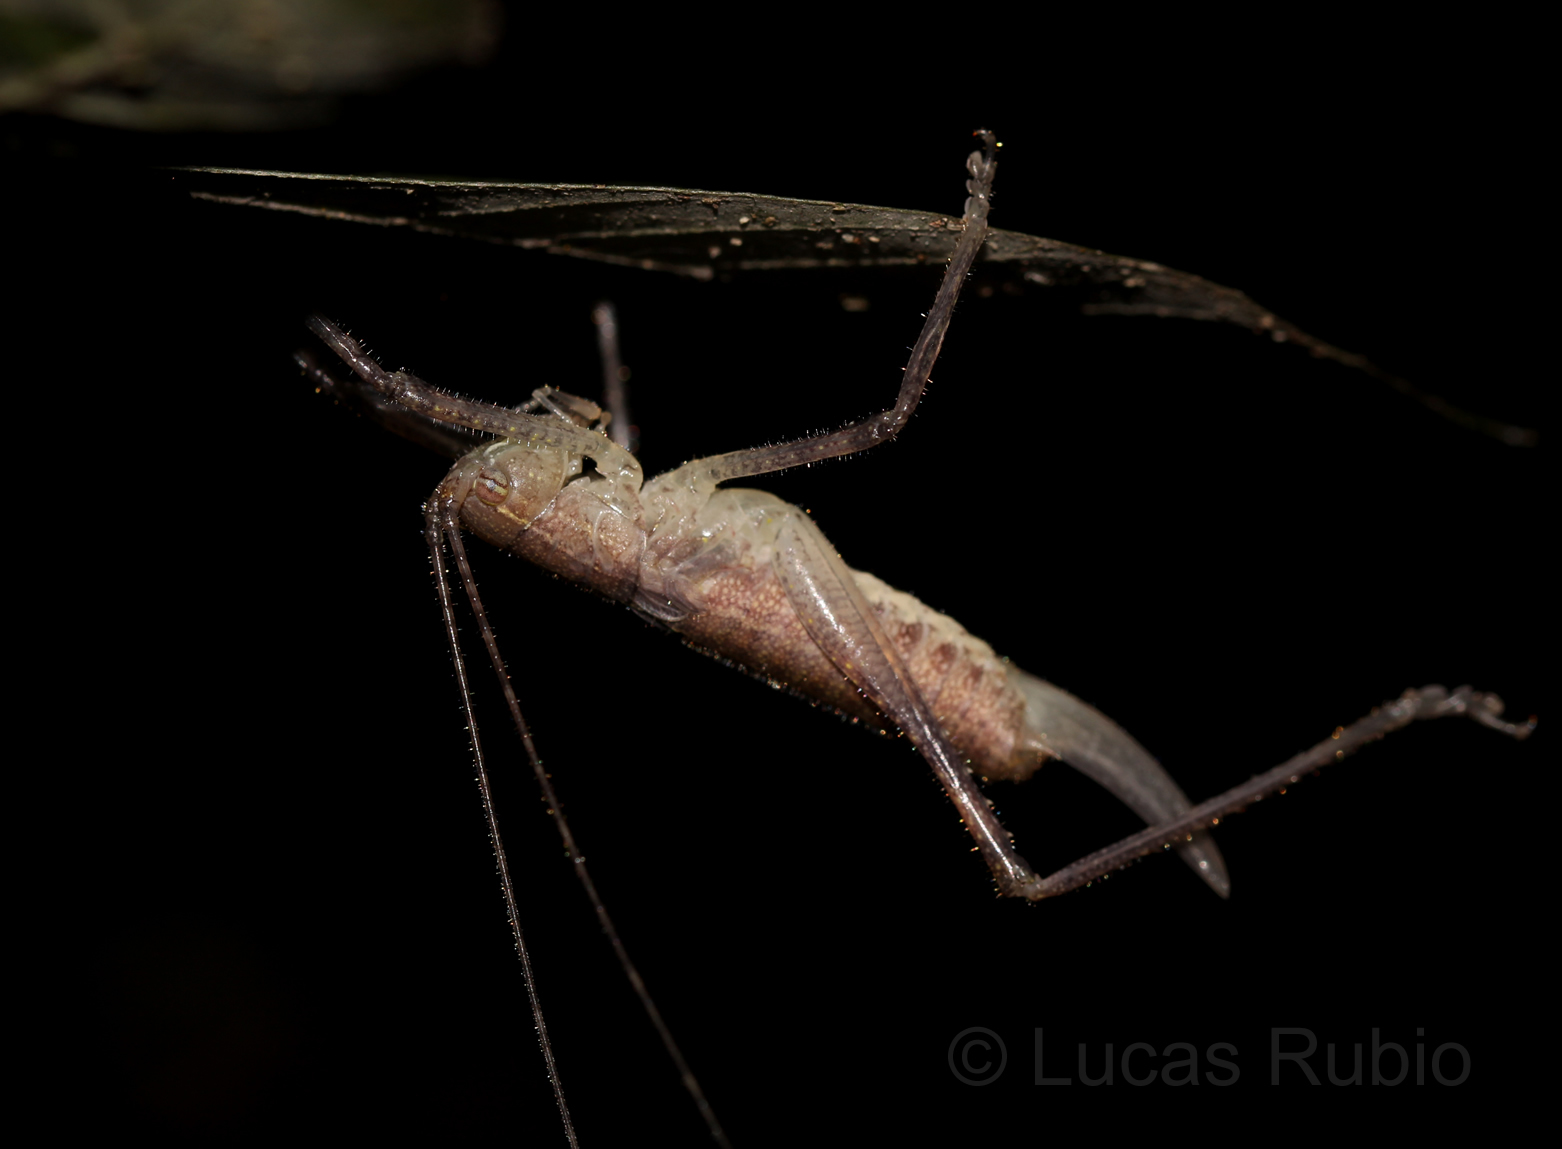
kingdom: Animalia
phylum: Arthropoda
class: Insecta
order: Orthoptera
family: Tettigoniidae
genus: Brachyteleutias
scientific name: Brachyteleutias bilineatus
